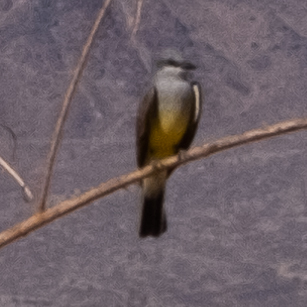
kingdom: Animalia
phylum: Chordata
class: Aves
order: Passeriformes
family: Tyrannidae
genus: Tyrannus
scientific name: Tyrannus verticalis
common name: Western kingbird
